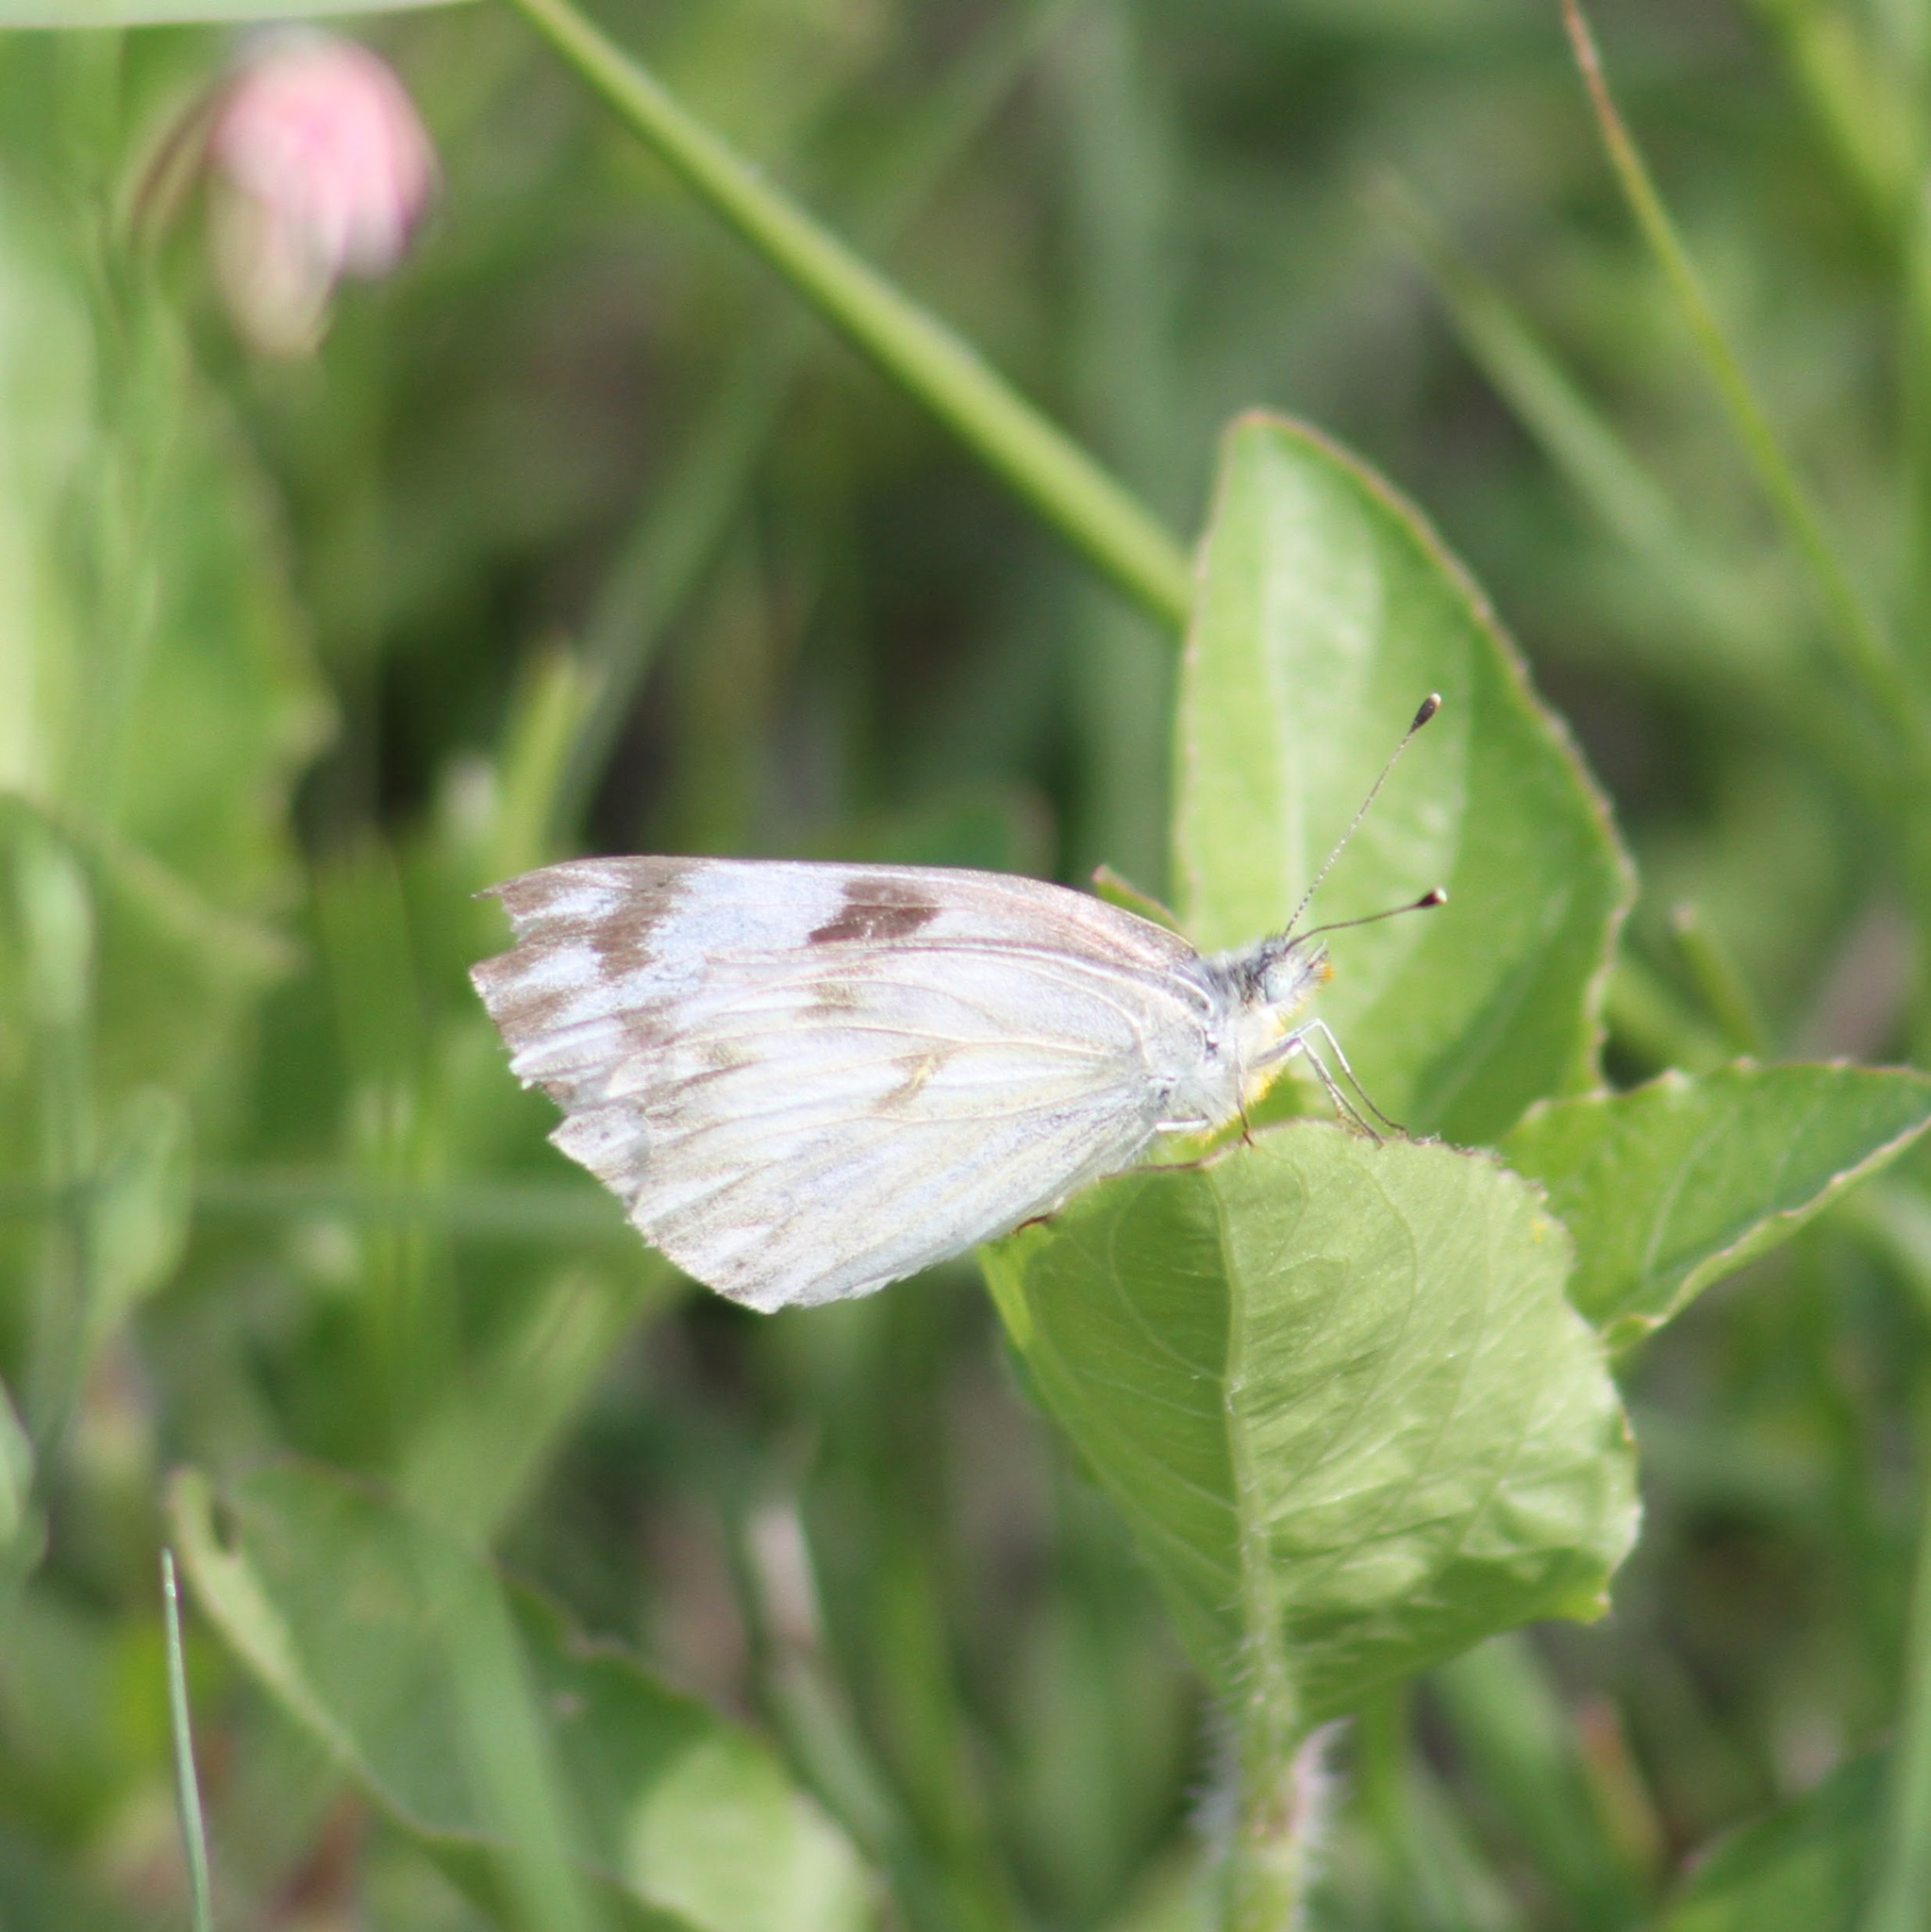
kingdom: Animalia
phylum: Arthropoda
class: Insecta
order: Lepidoptera
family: Pieridae
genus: Pontia
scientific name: Pontia protodice
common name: Checkered white
